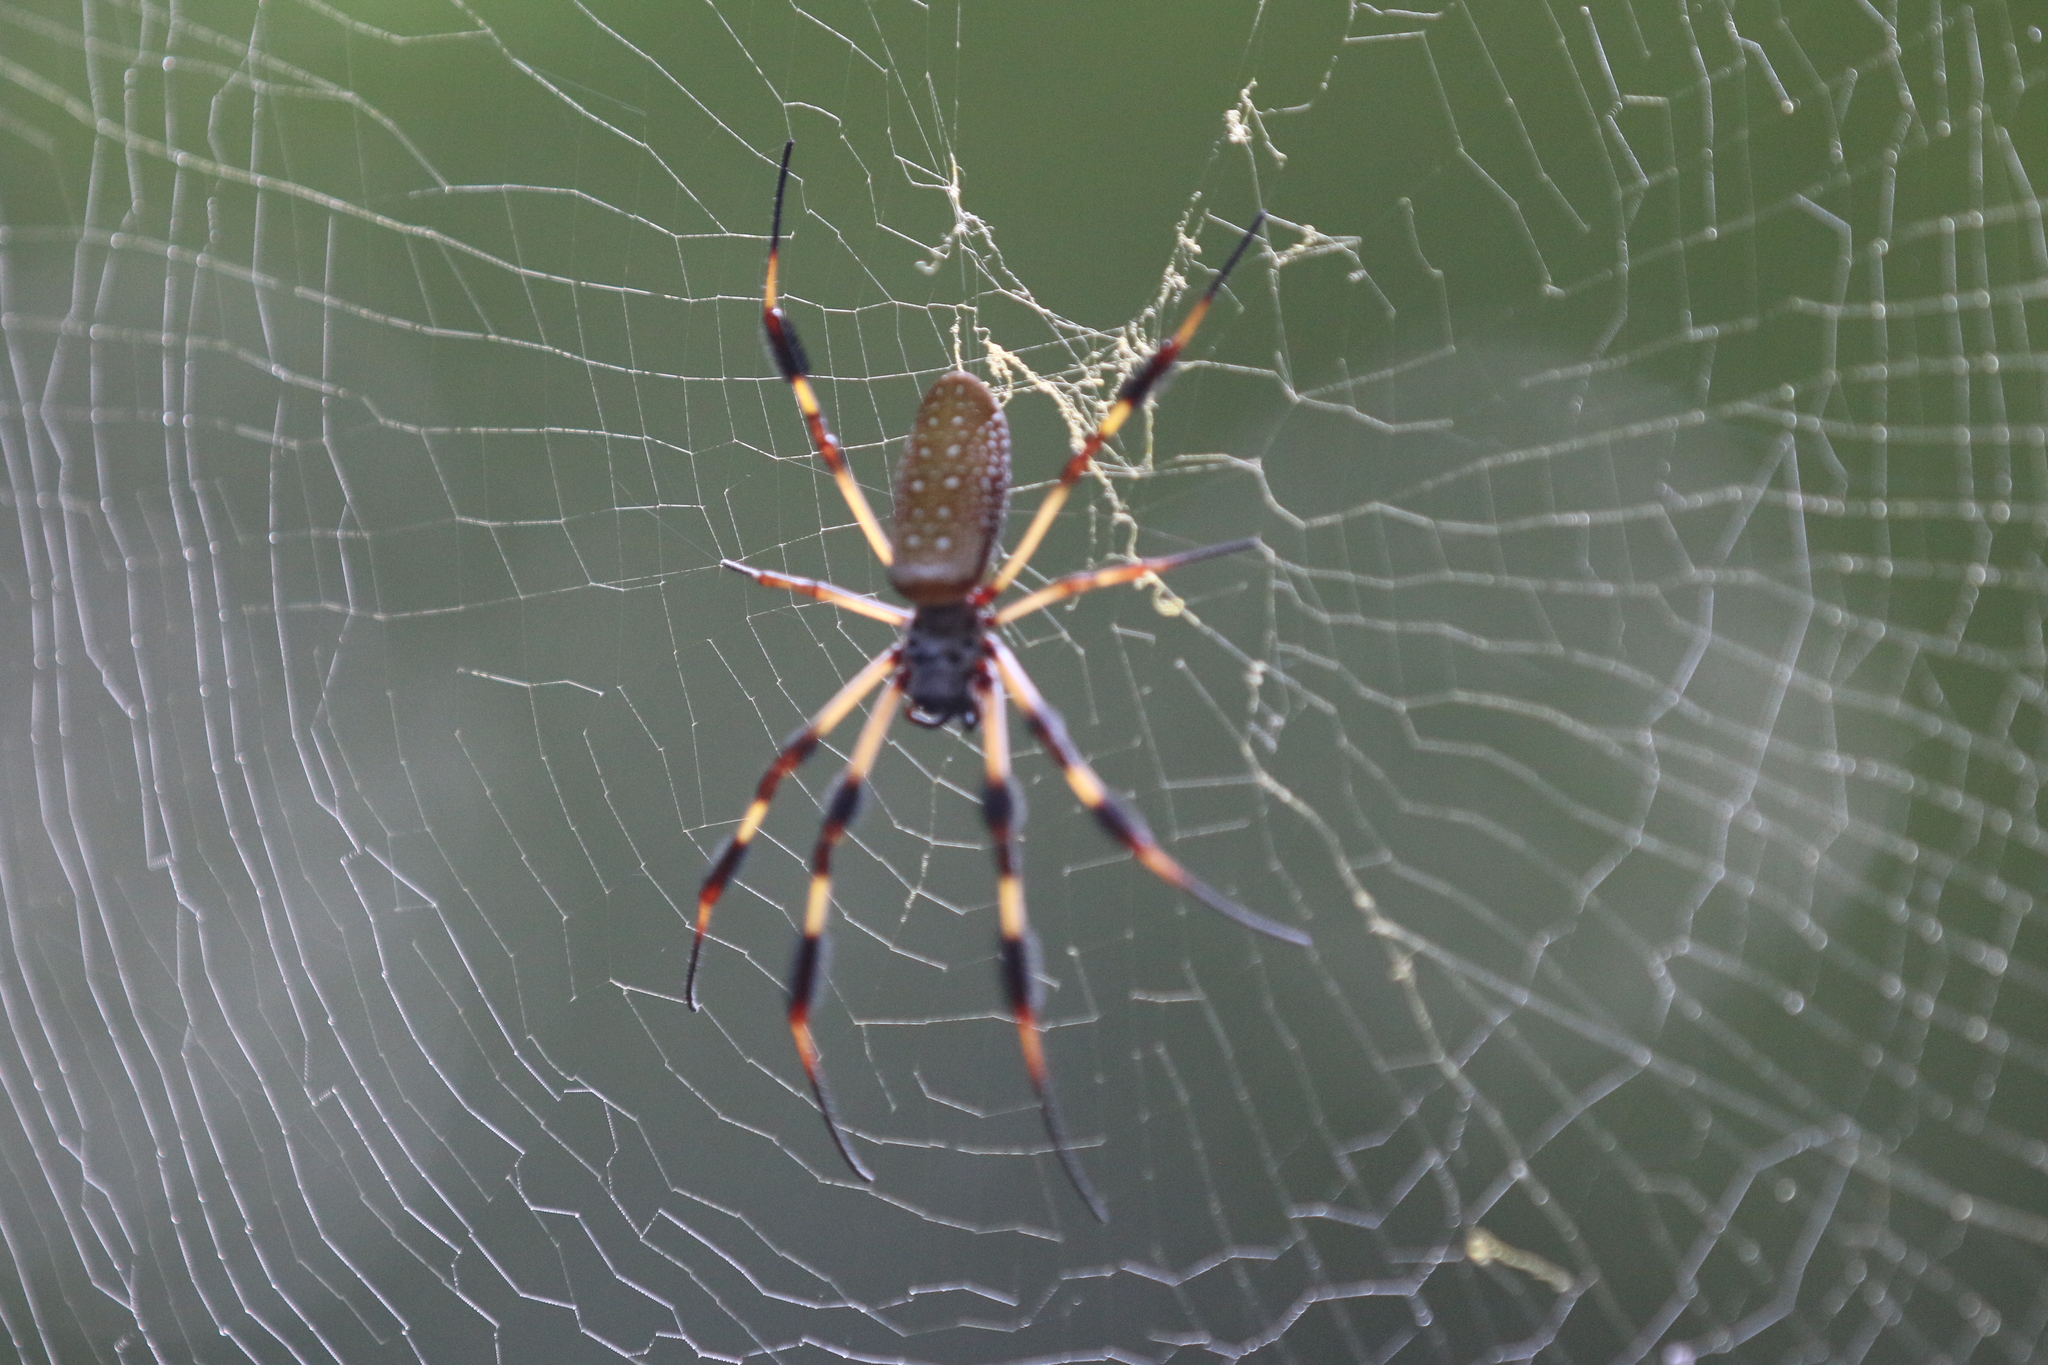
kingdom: Animalia
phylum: Arthropoda
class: Arachnida
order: Araneae
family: Araneidae
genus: Trichonephila
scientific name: Trichonephila clavipes
